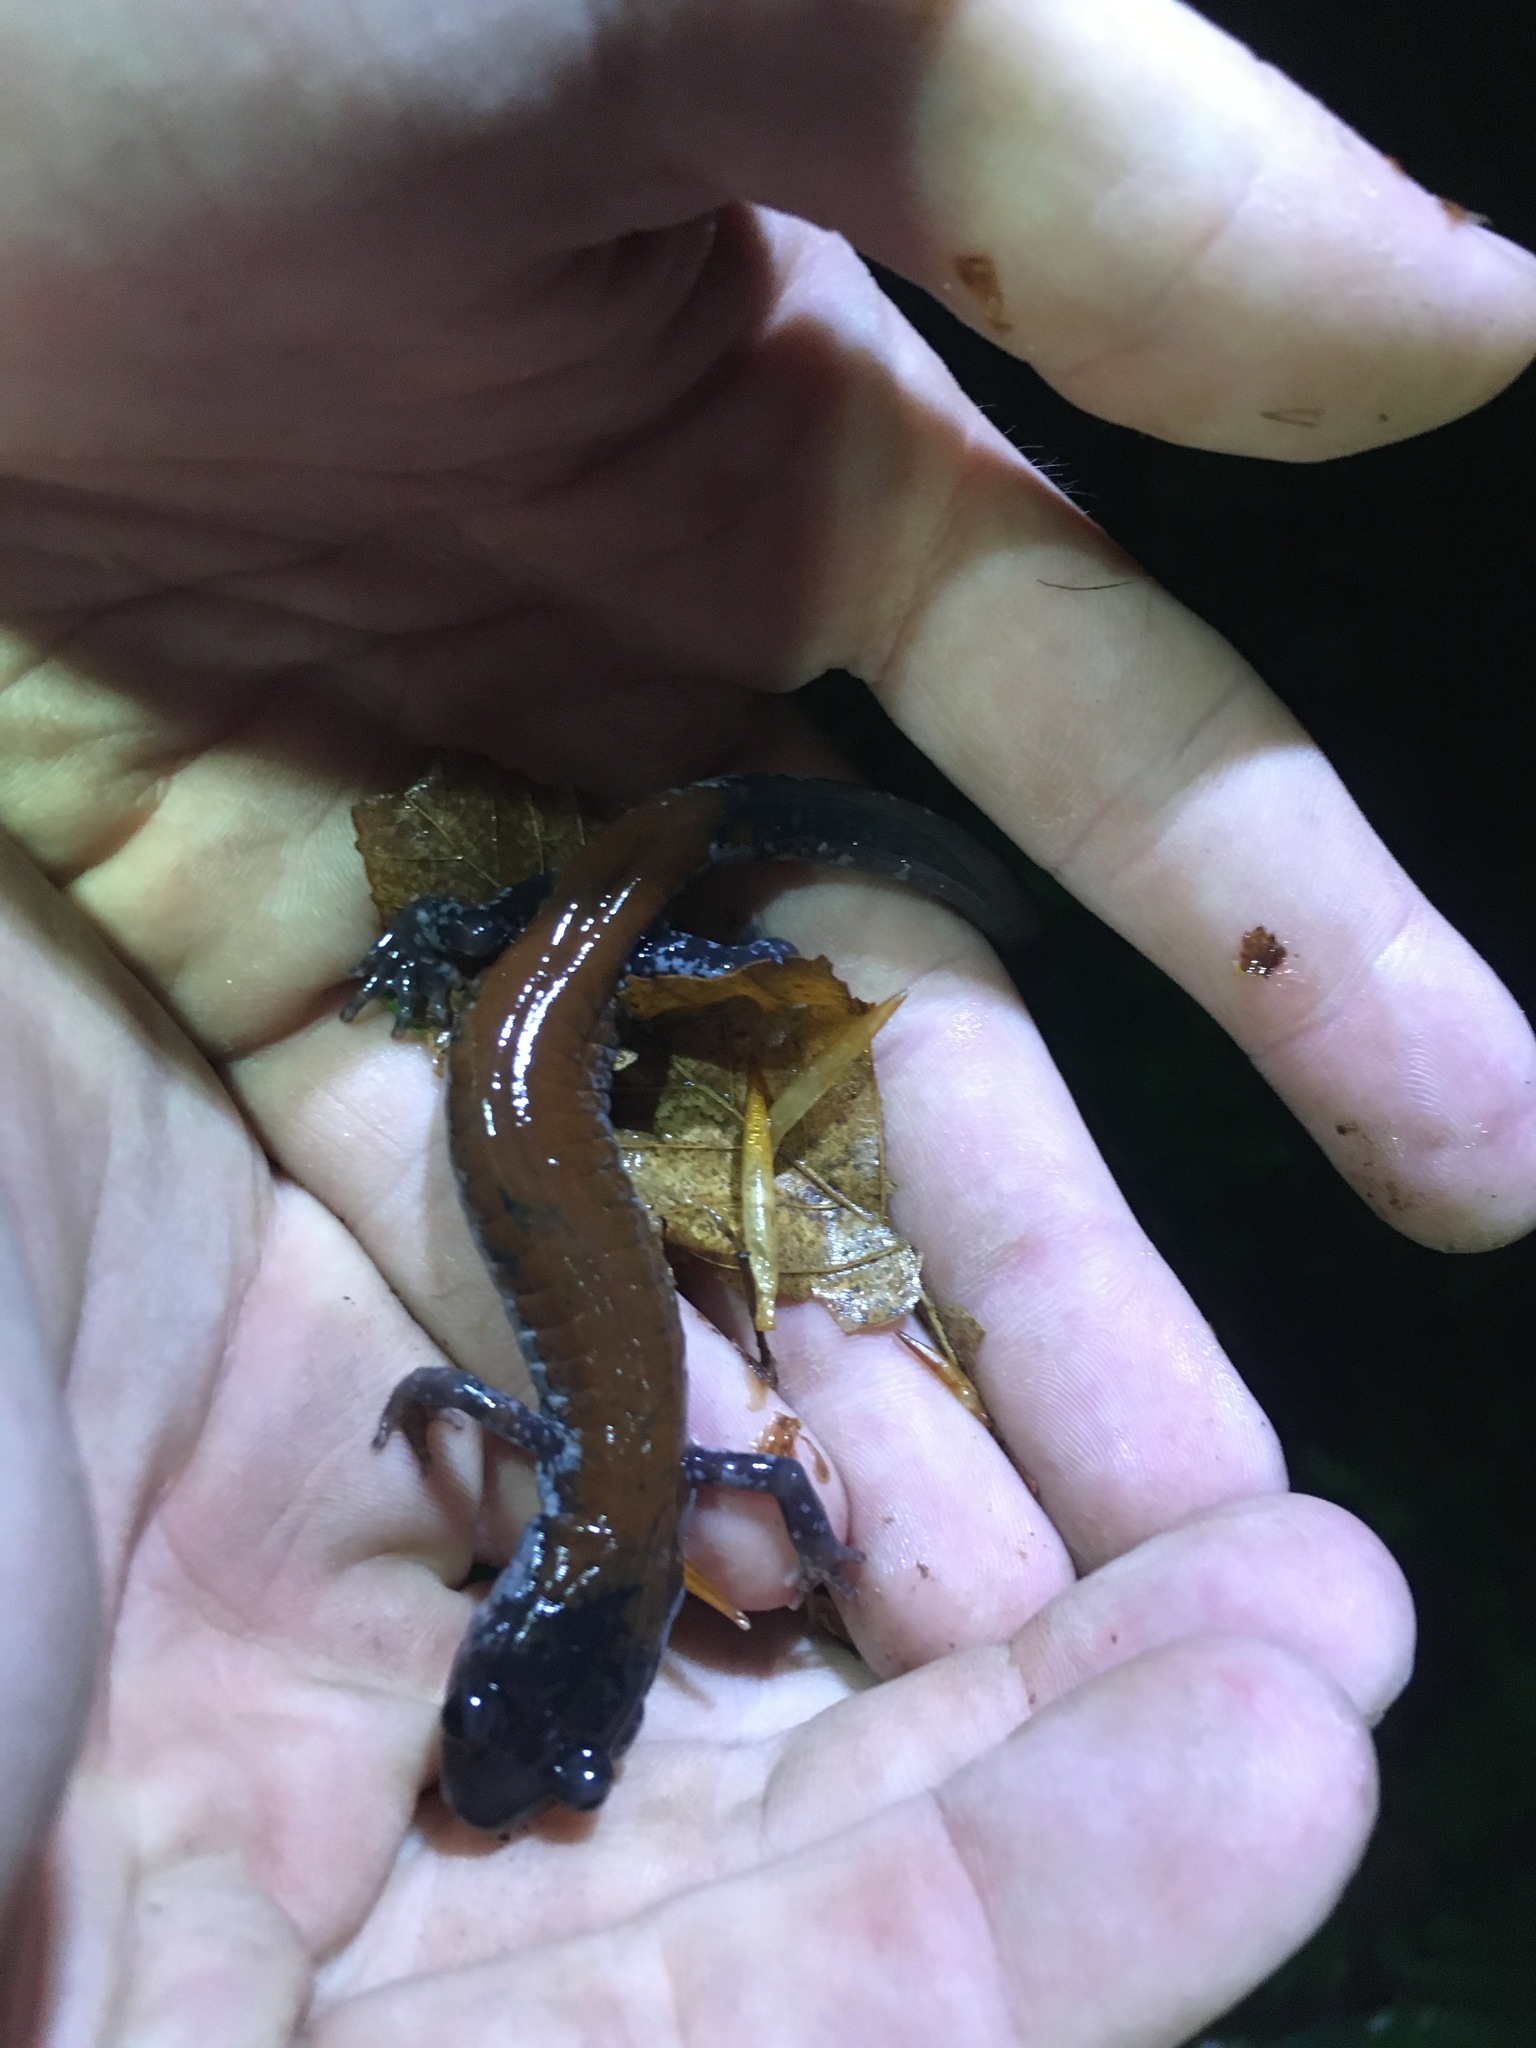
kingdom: Animalia
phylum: Chordata
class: Amphibia
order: Caudata
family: Plethodontidae
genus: Plethodon
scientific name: Plethodon yonahlossee
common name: Yonahlossee salamander
